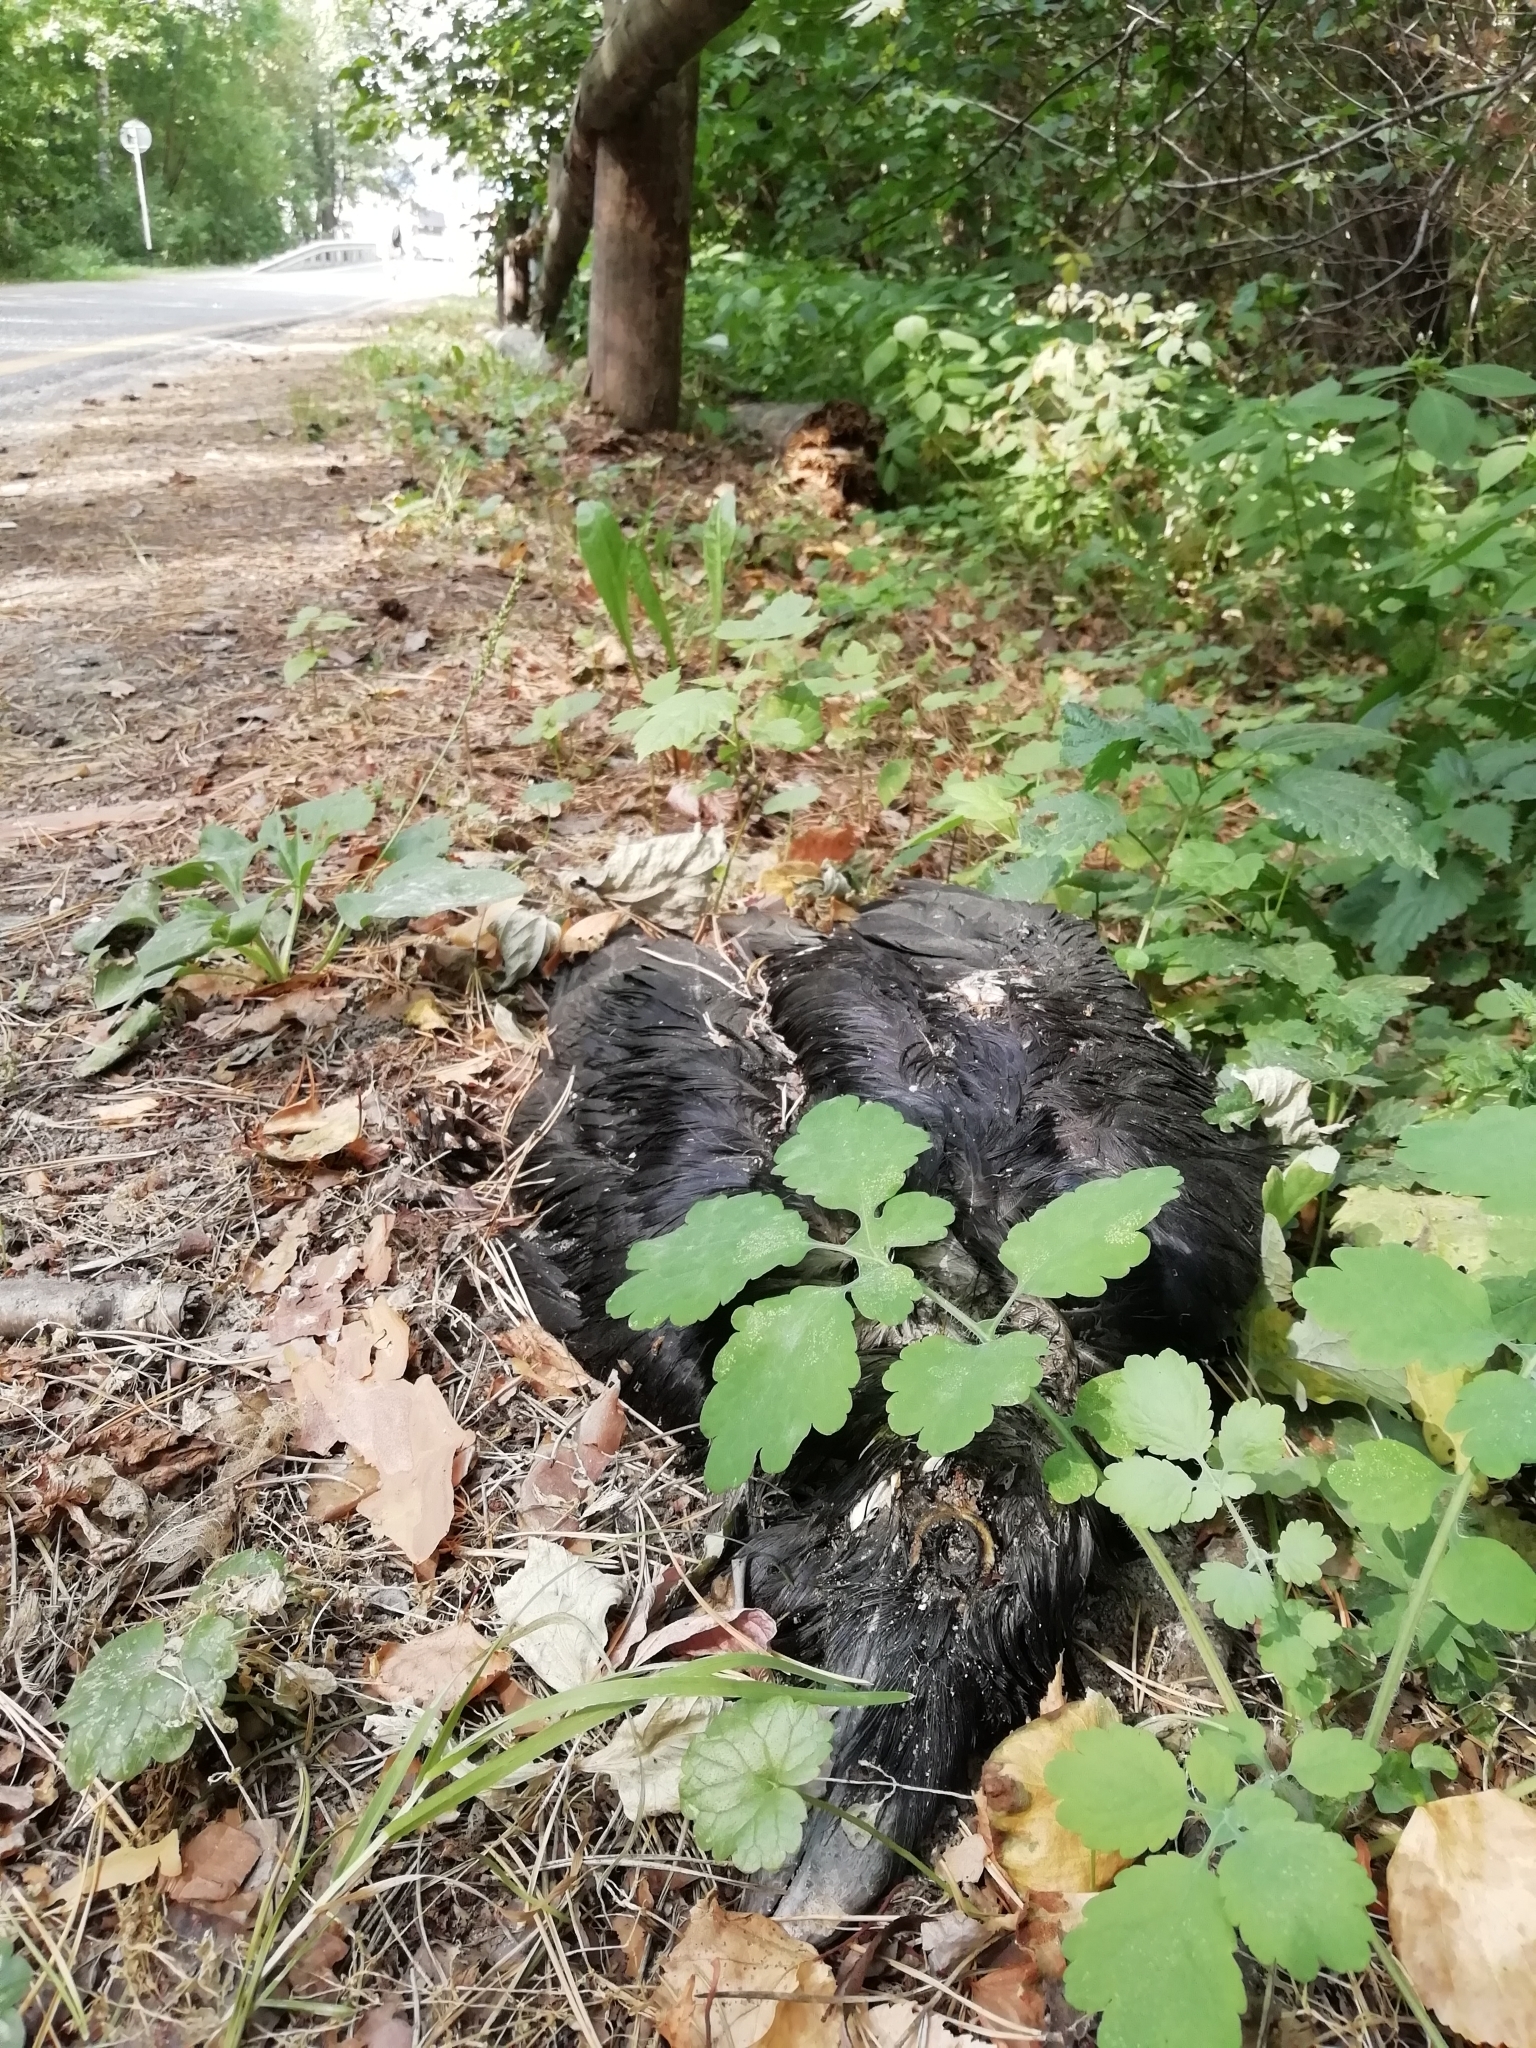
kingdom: Animalia
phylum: Chordata
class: Aves
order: Passeriformes
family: Corvidae
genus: Corvus
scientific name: Corvus corax
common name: Common raven
